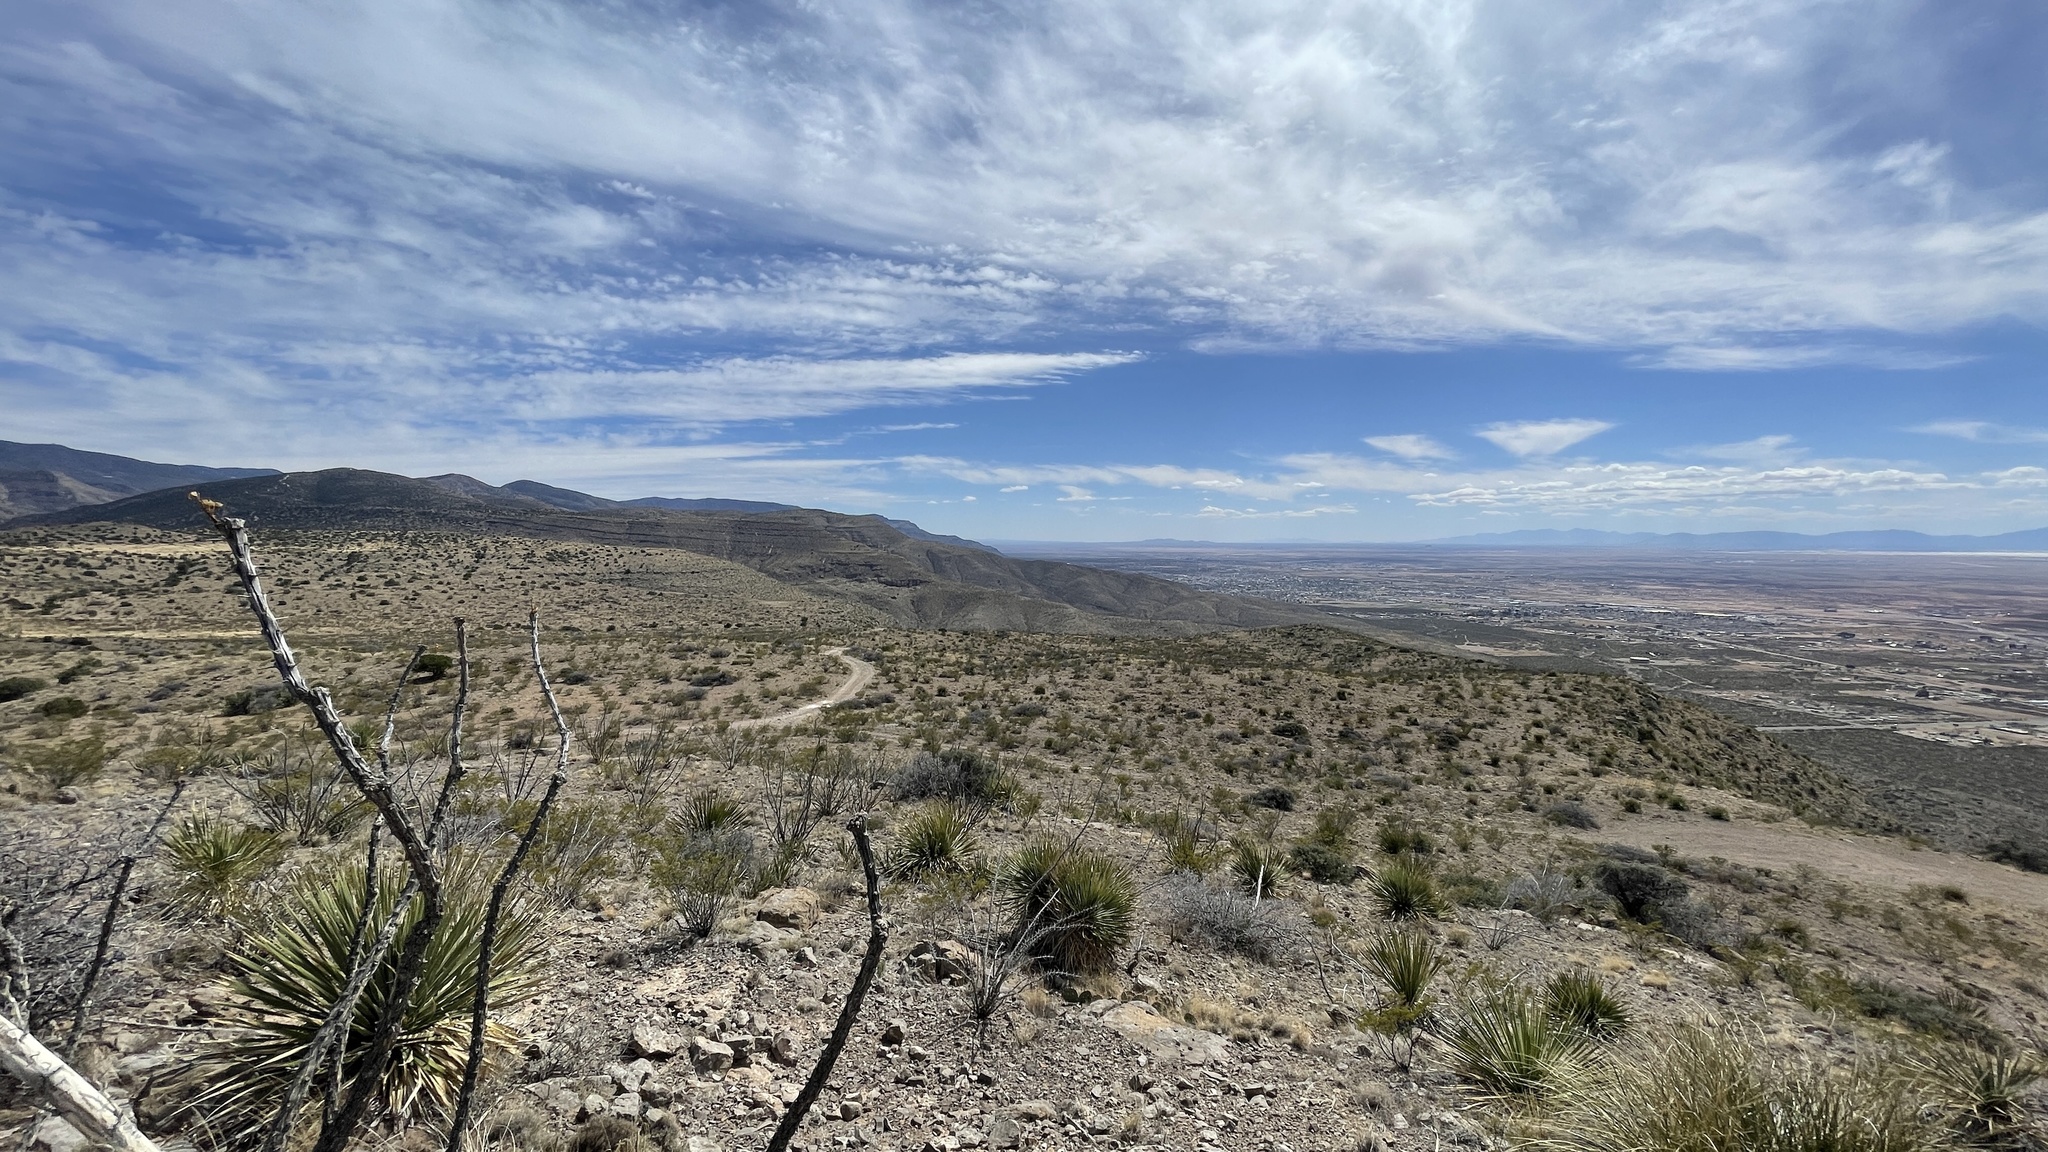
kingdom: Plantae
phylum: Tracheophyta
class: Magnoliopsida
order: Ericales
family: Fouquieriaceae
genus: Fouquieria
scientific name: Fouquieria splendens
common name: Vine-cactus
